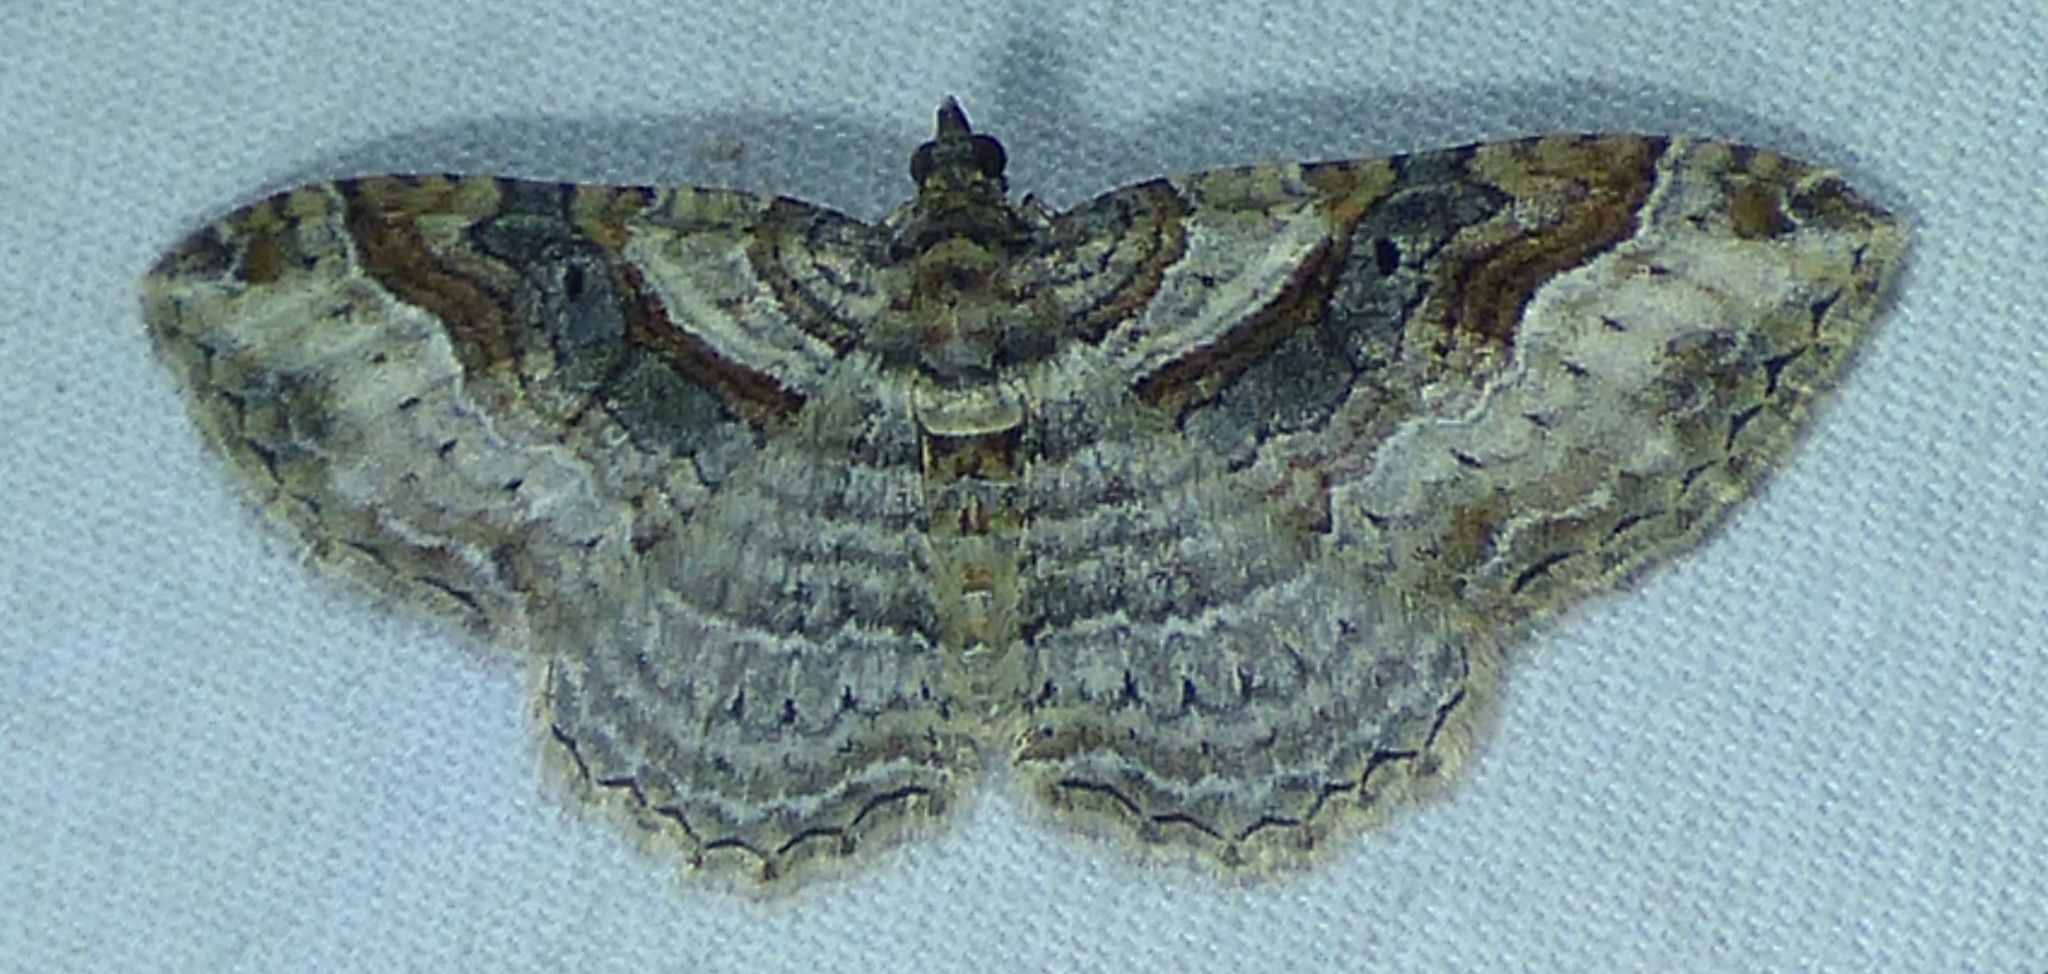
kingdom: Animalia
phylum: Arthropoda
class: Insecta
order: Lepidoptera
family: Geometridae
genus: Costaconvexa
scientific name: Costaconvexa centrostrigaria
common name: Bent-line carpet
